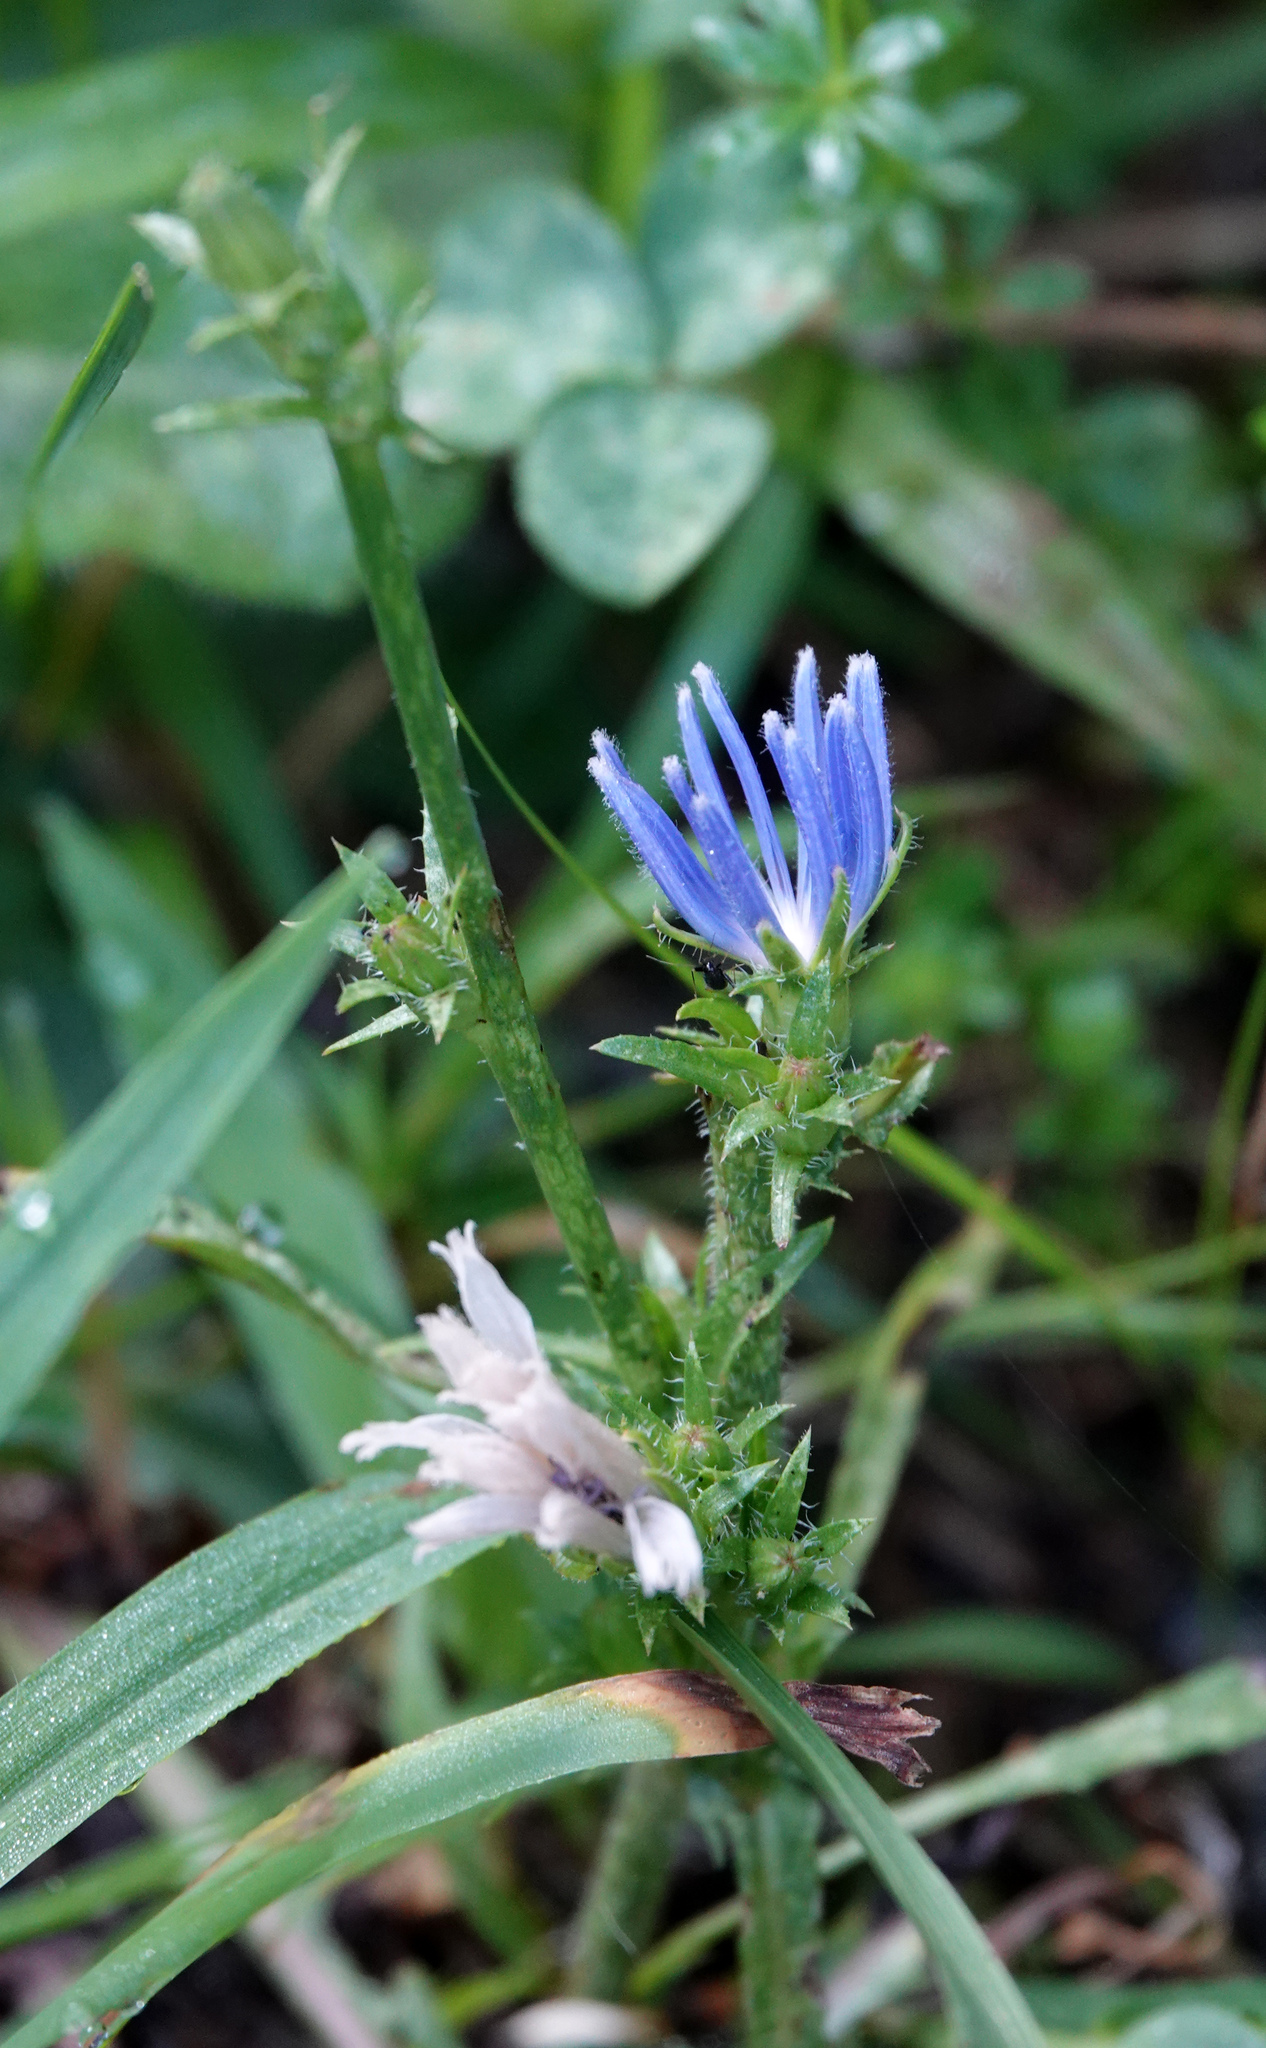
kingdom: Plantae
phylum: Tracheophyta
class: Magnoliopsida
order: Asterales
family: Asteraceae
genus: Cichorium
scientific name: Cichorium intybus
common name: Chicory
